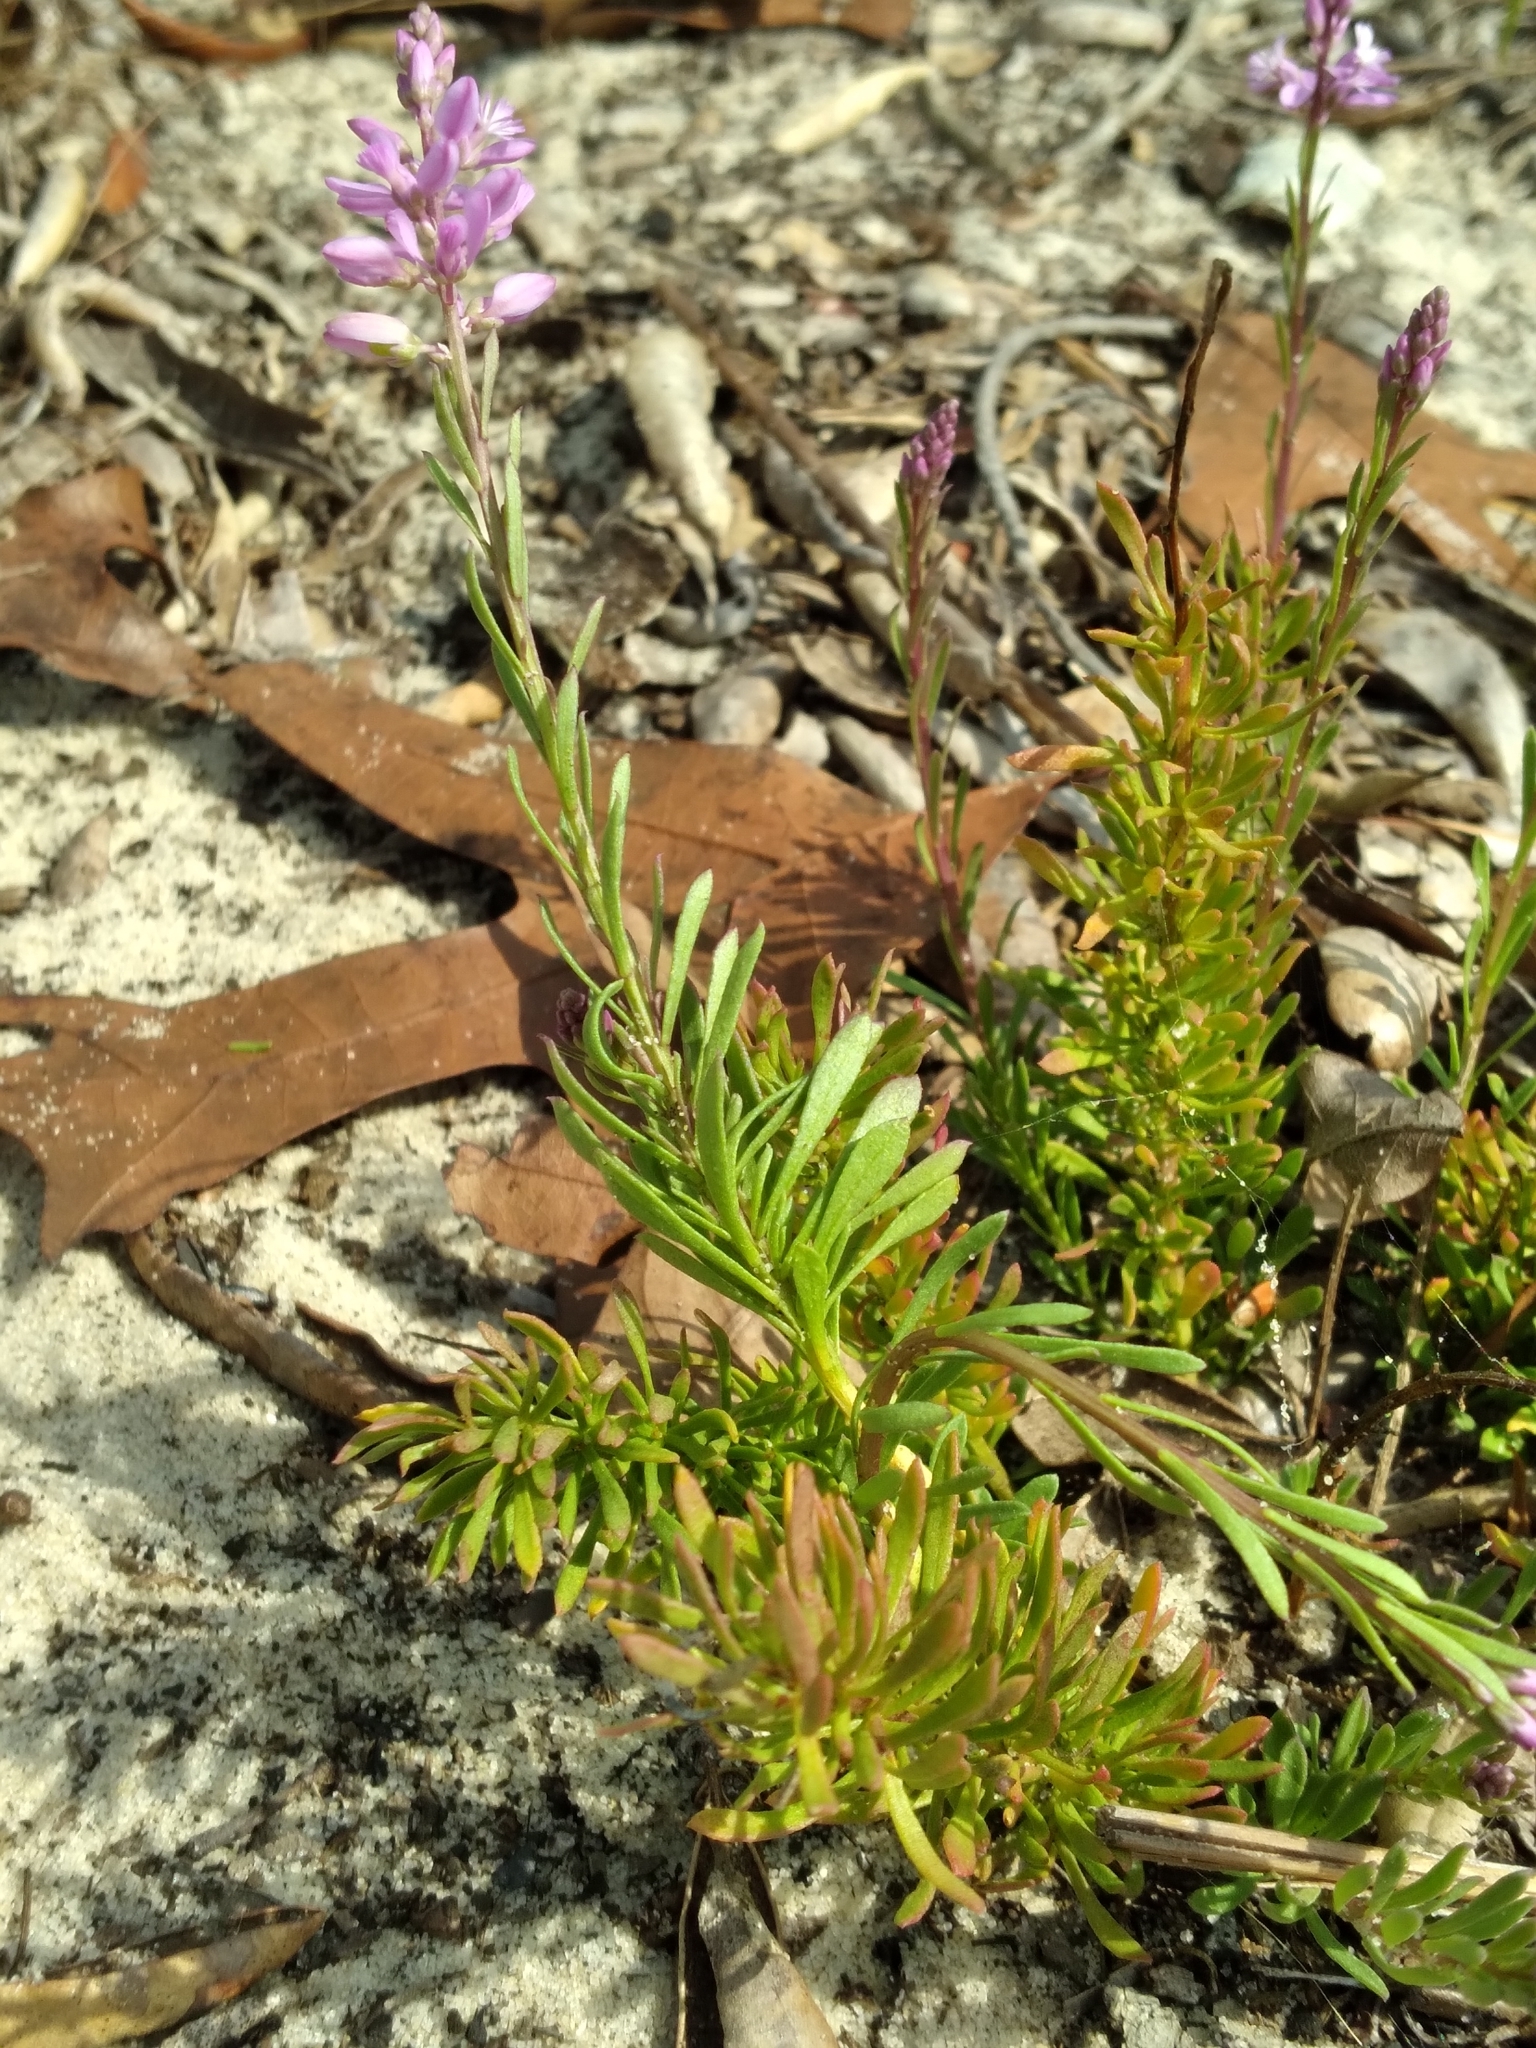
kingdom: Plantae
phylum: Tracheophyta
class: Magnoliopsida
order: Fabales
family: Polygalaceae
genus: Polygala
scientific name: Polygala lewtonii
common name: Lewton's polygala
